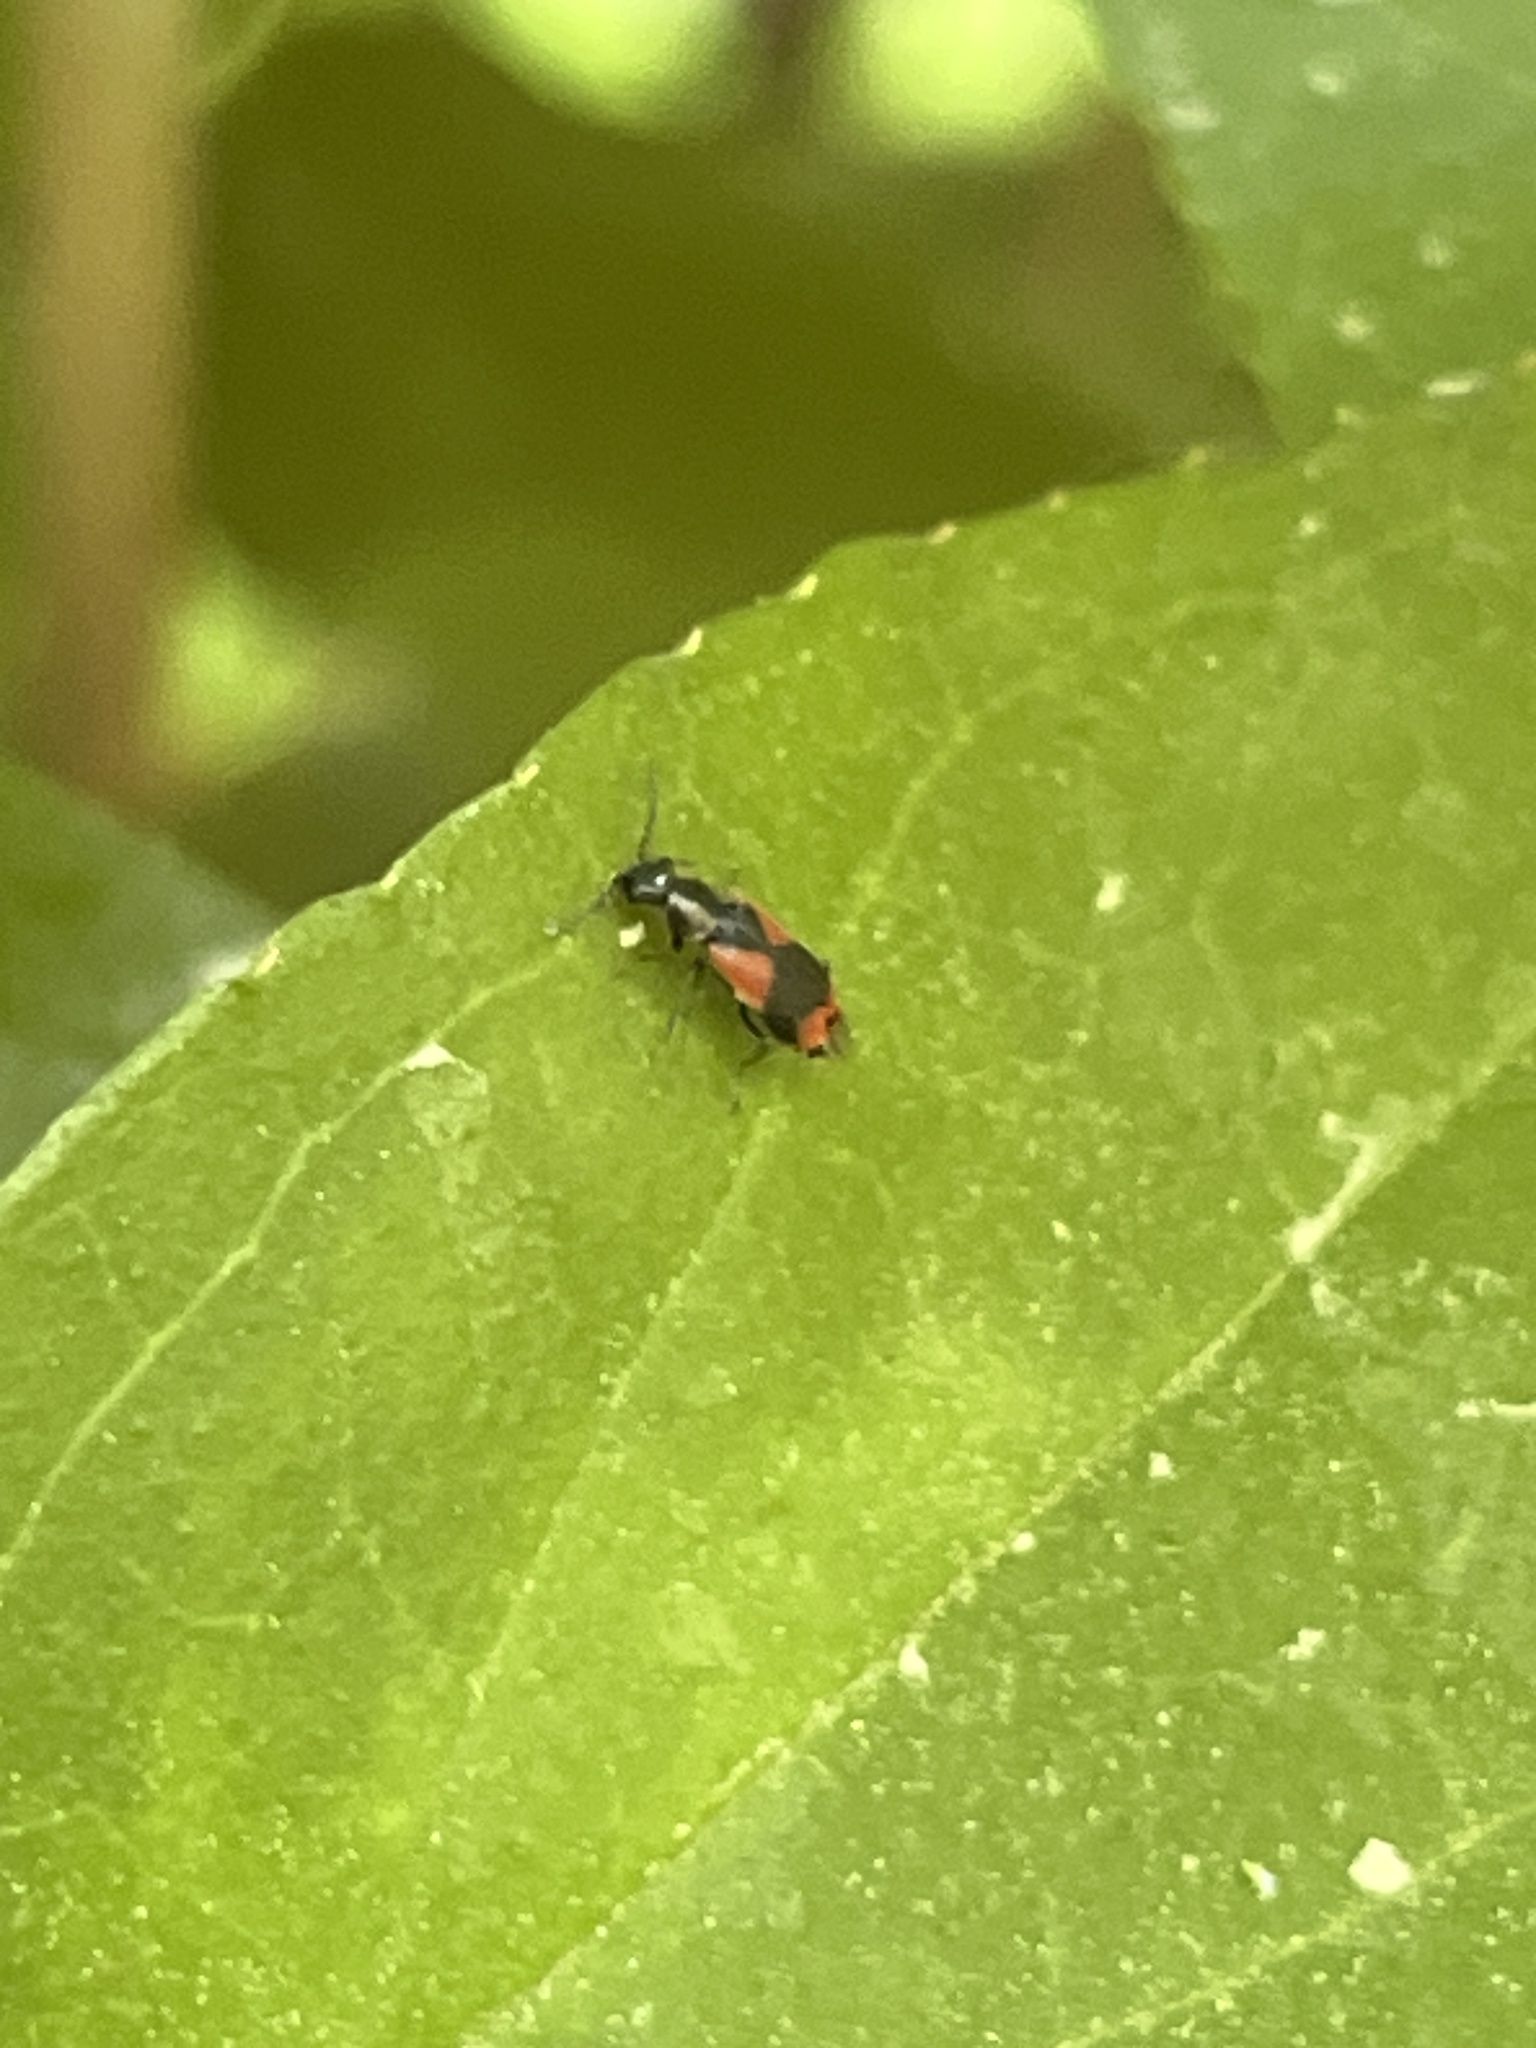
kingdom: Animalia
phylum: Arthropoda
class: Insecta
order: Coleoptera
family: Melyridae
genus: Anthocomus
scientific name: Anthocomus equestris
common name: Black-banded soft-winged flower beetle
